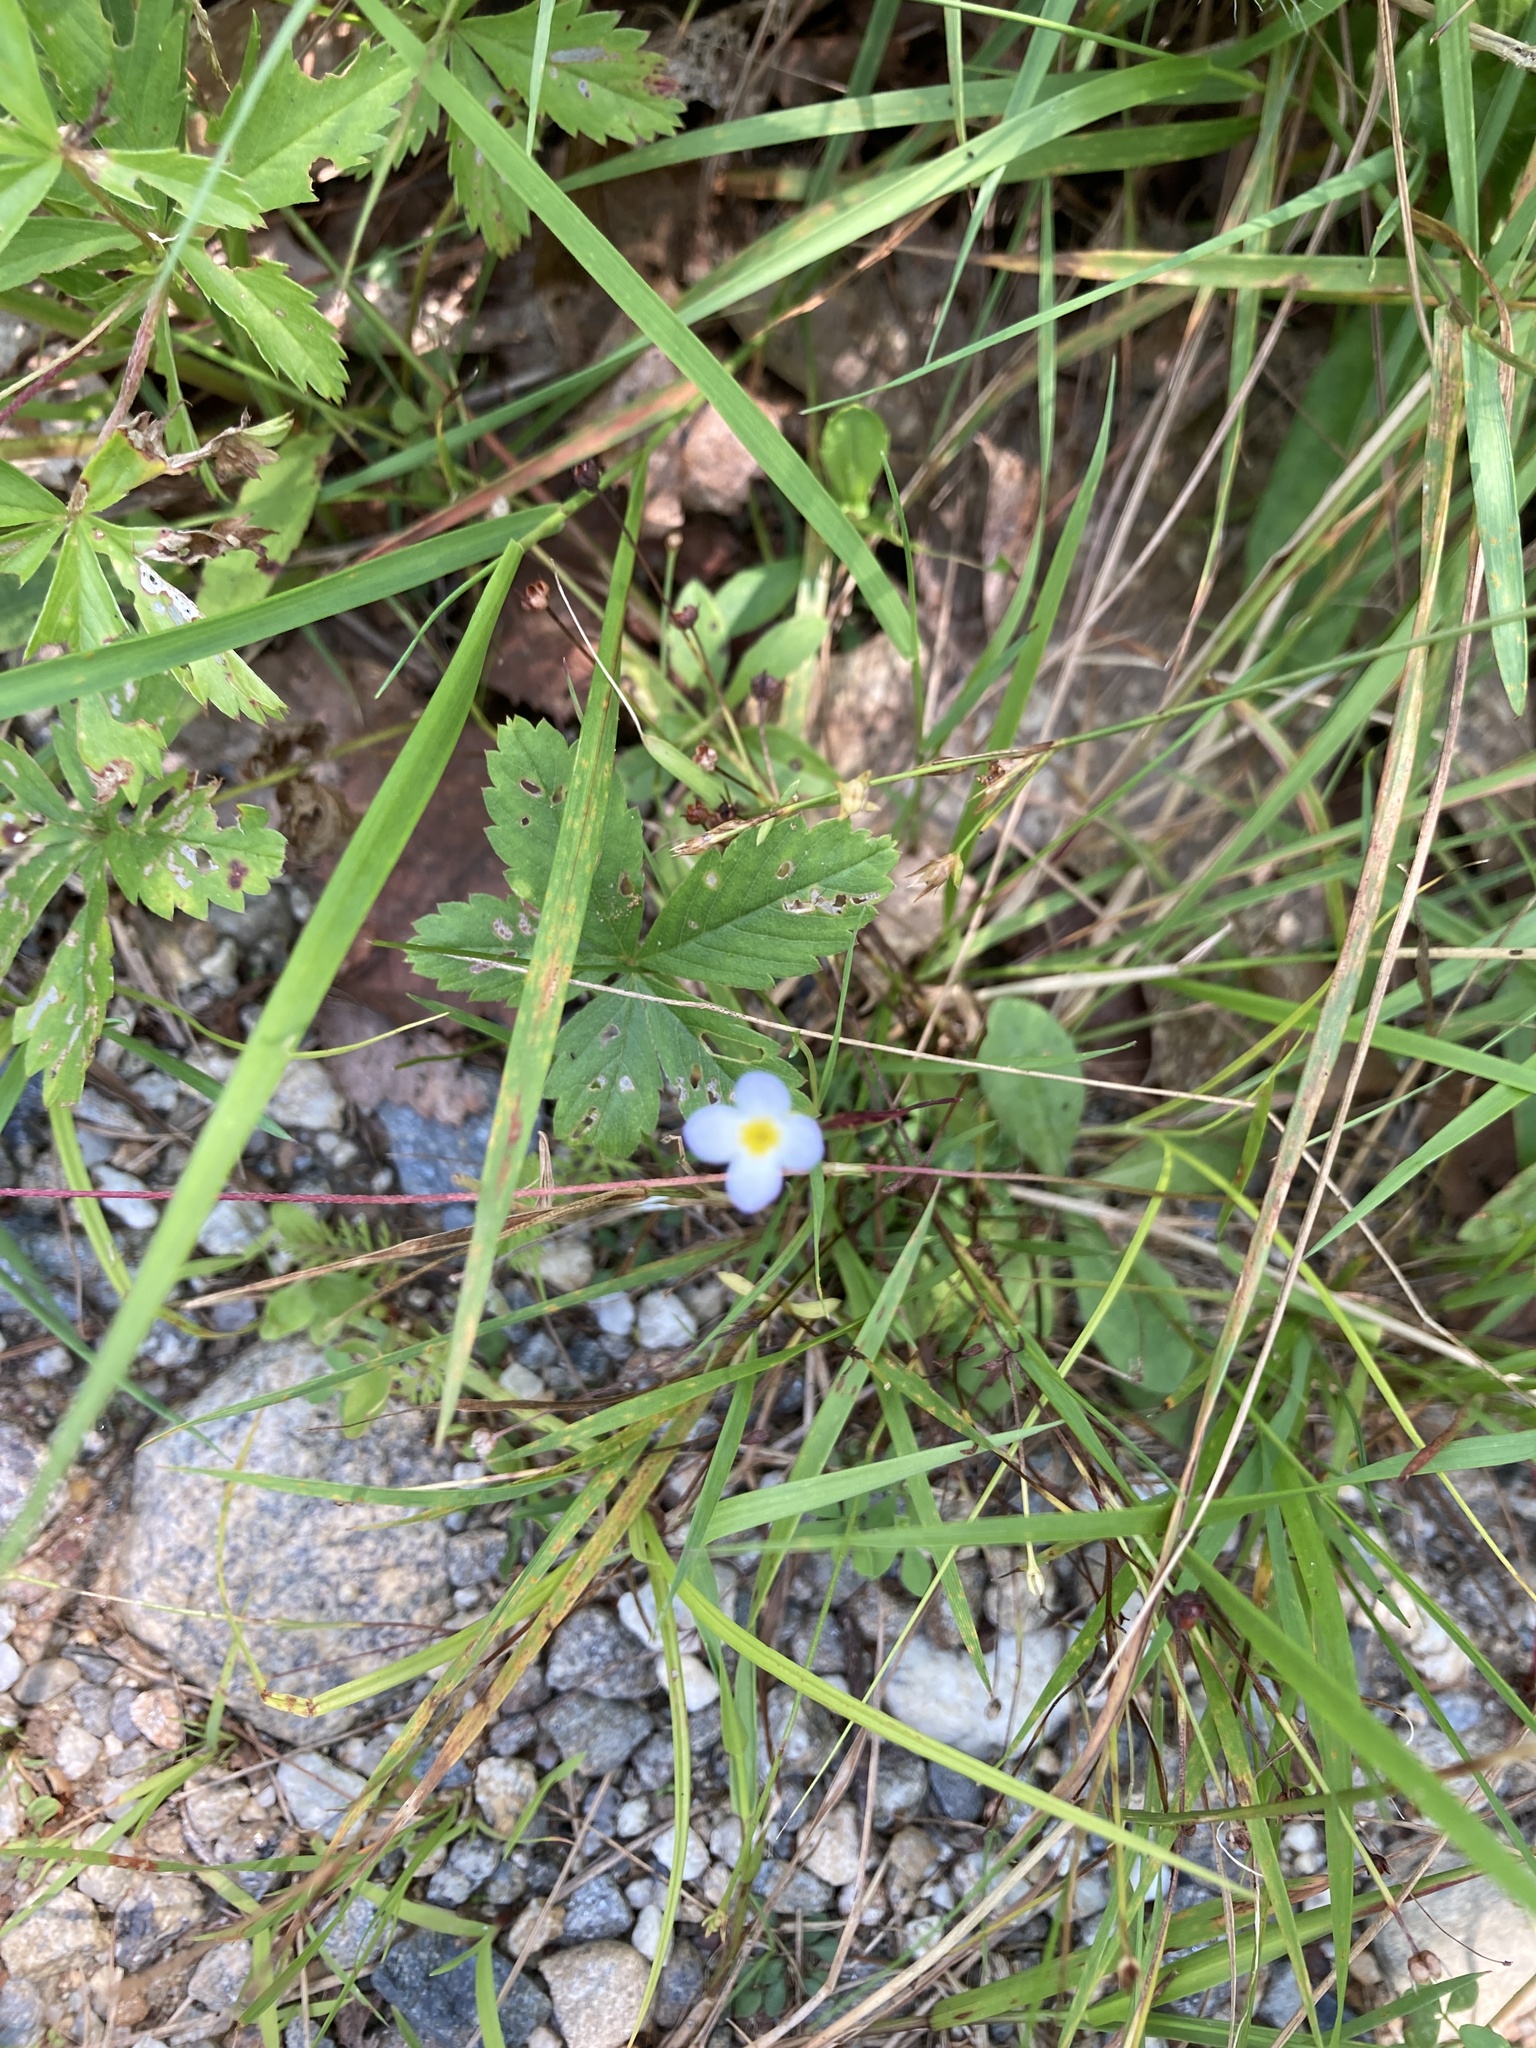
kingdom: Plantae
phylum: Tracheophyta
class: Magnoliopsida
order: Gentianales
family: Rubiaceae
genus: Houstonia
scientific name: Houstonia caerulea
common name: Bluets
